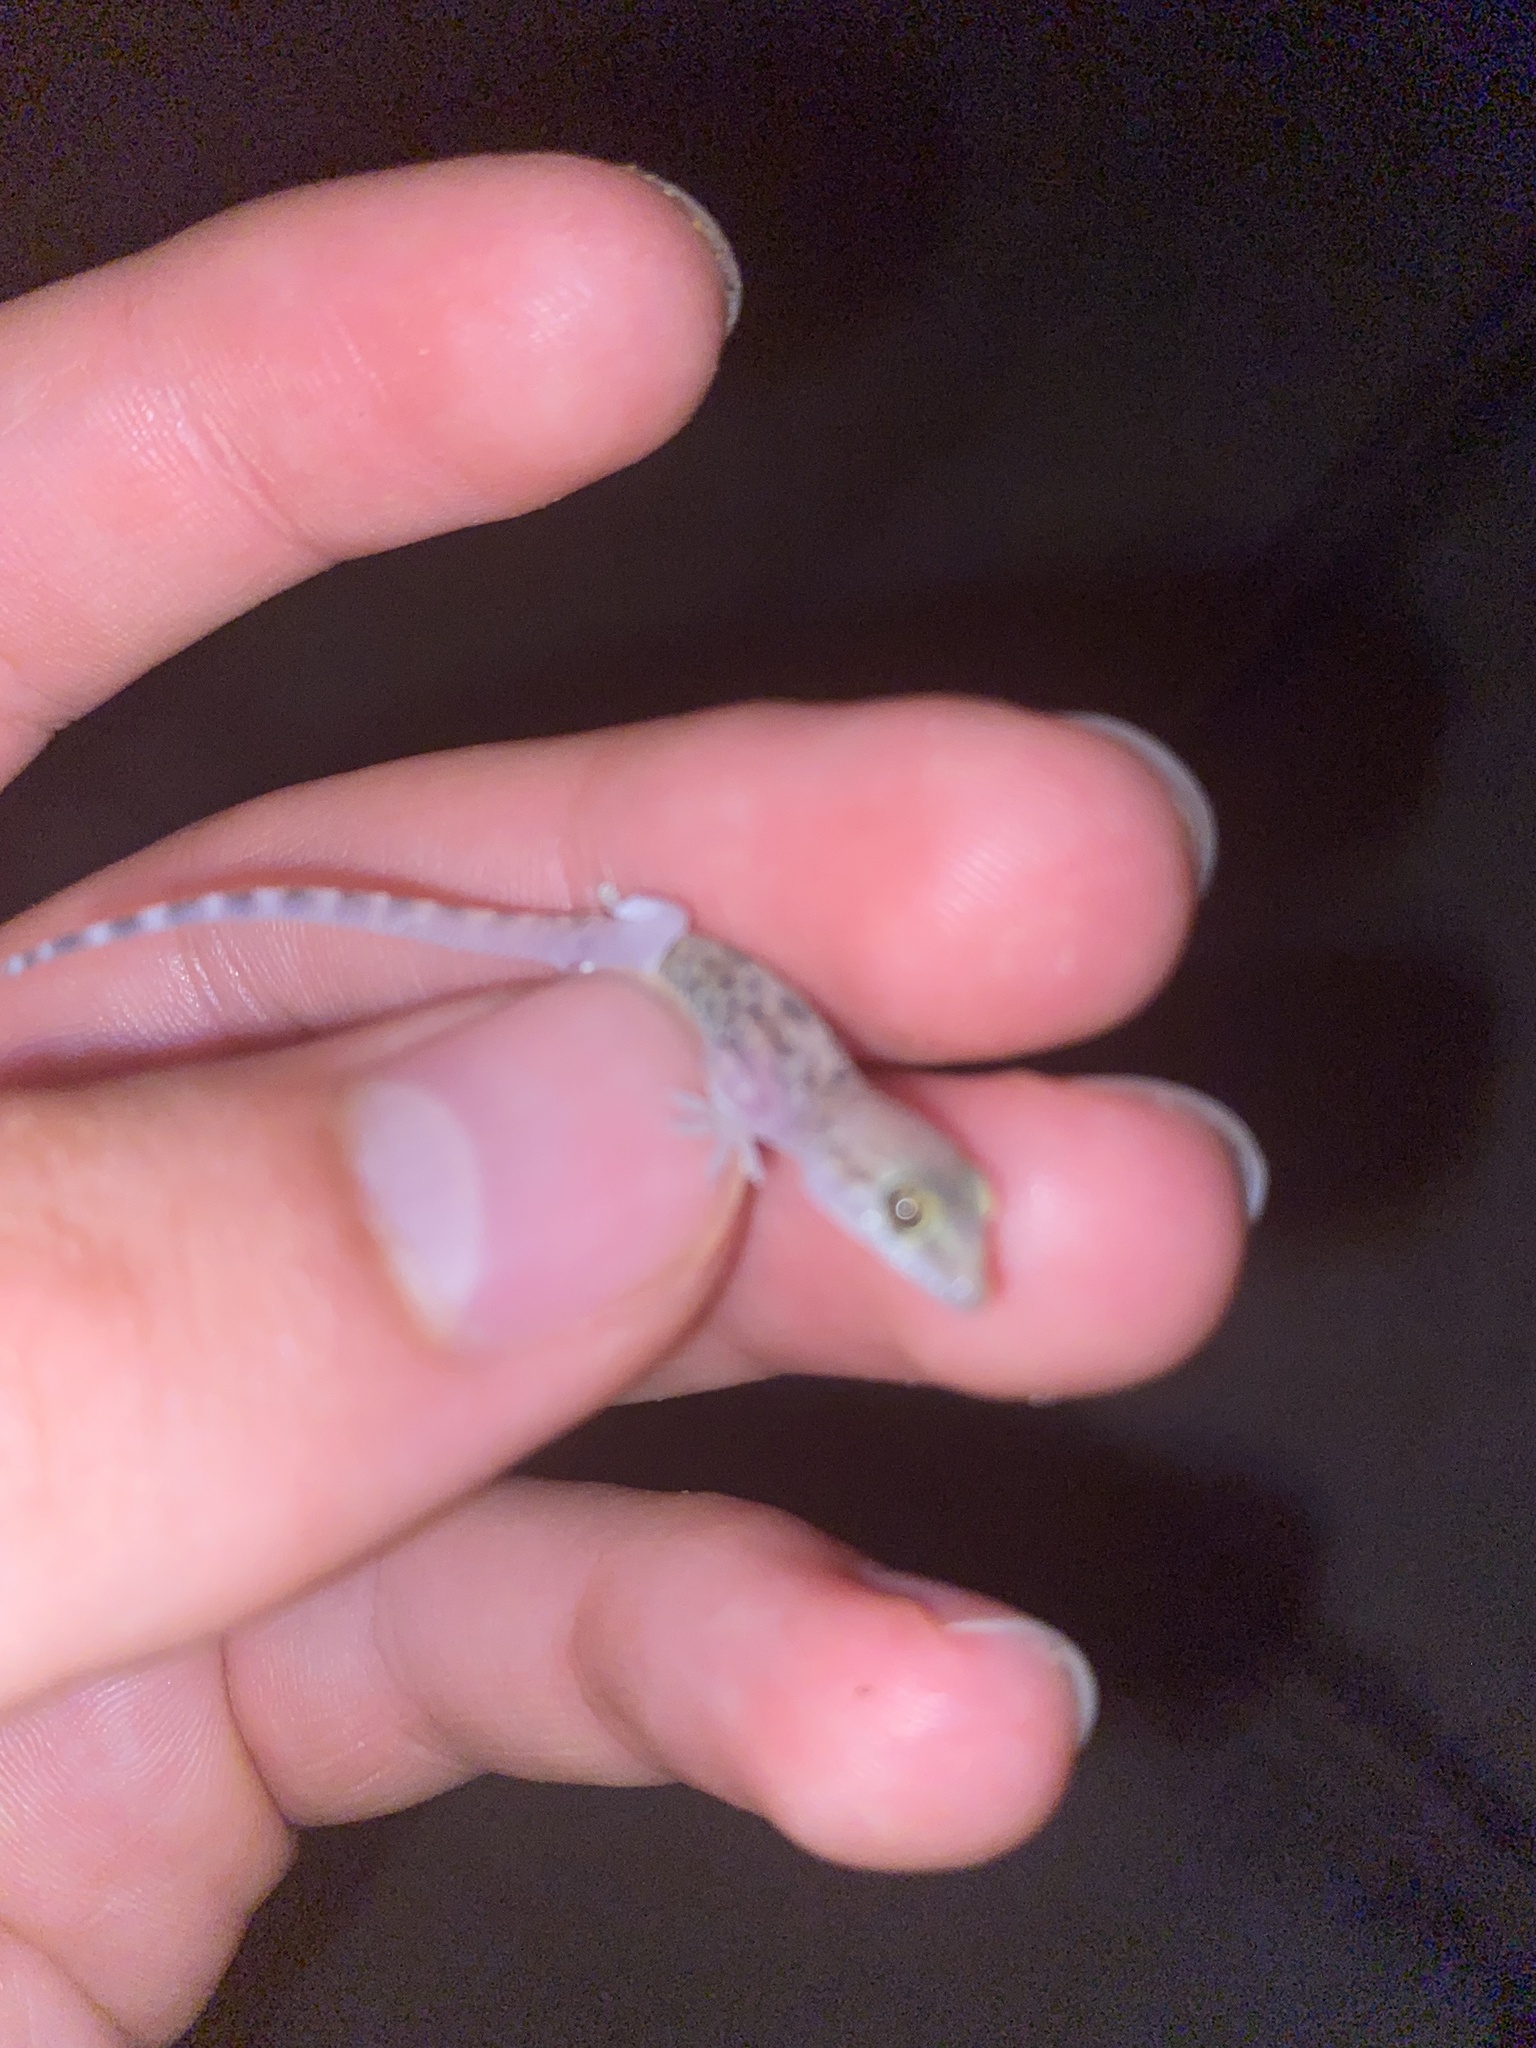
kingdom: Animalia
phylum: Chordata
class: Squamata
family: Gekkonidae
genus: Hemidactylus
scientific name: Hemidactylus turcicus
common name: Turkish gecko
